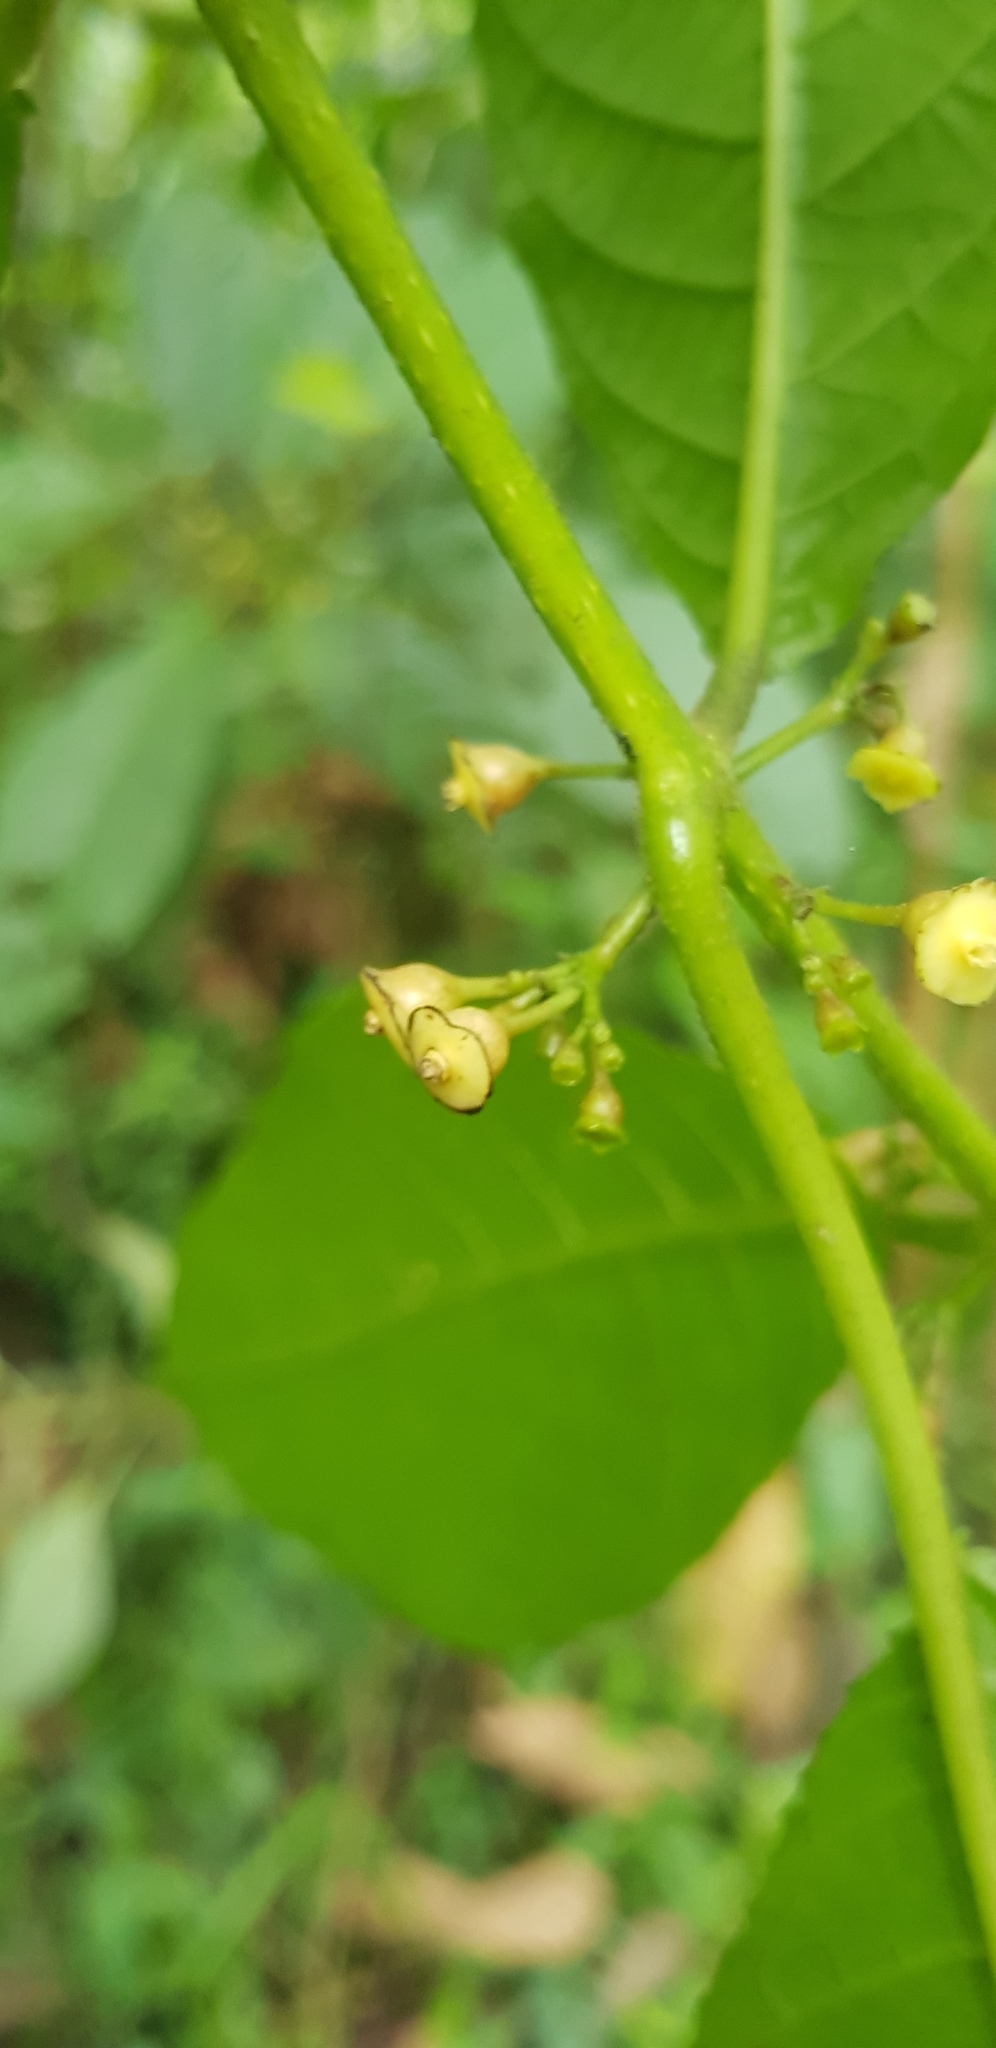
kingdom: Plantae
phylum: Tracheophyta
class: Magnoliopsida
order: Laurales
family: Siparunaceae
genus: Siparuna
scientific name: Siparuna thecaphora
